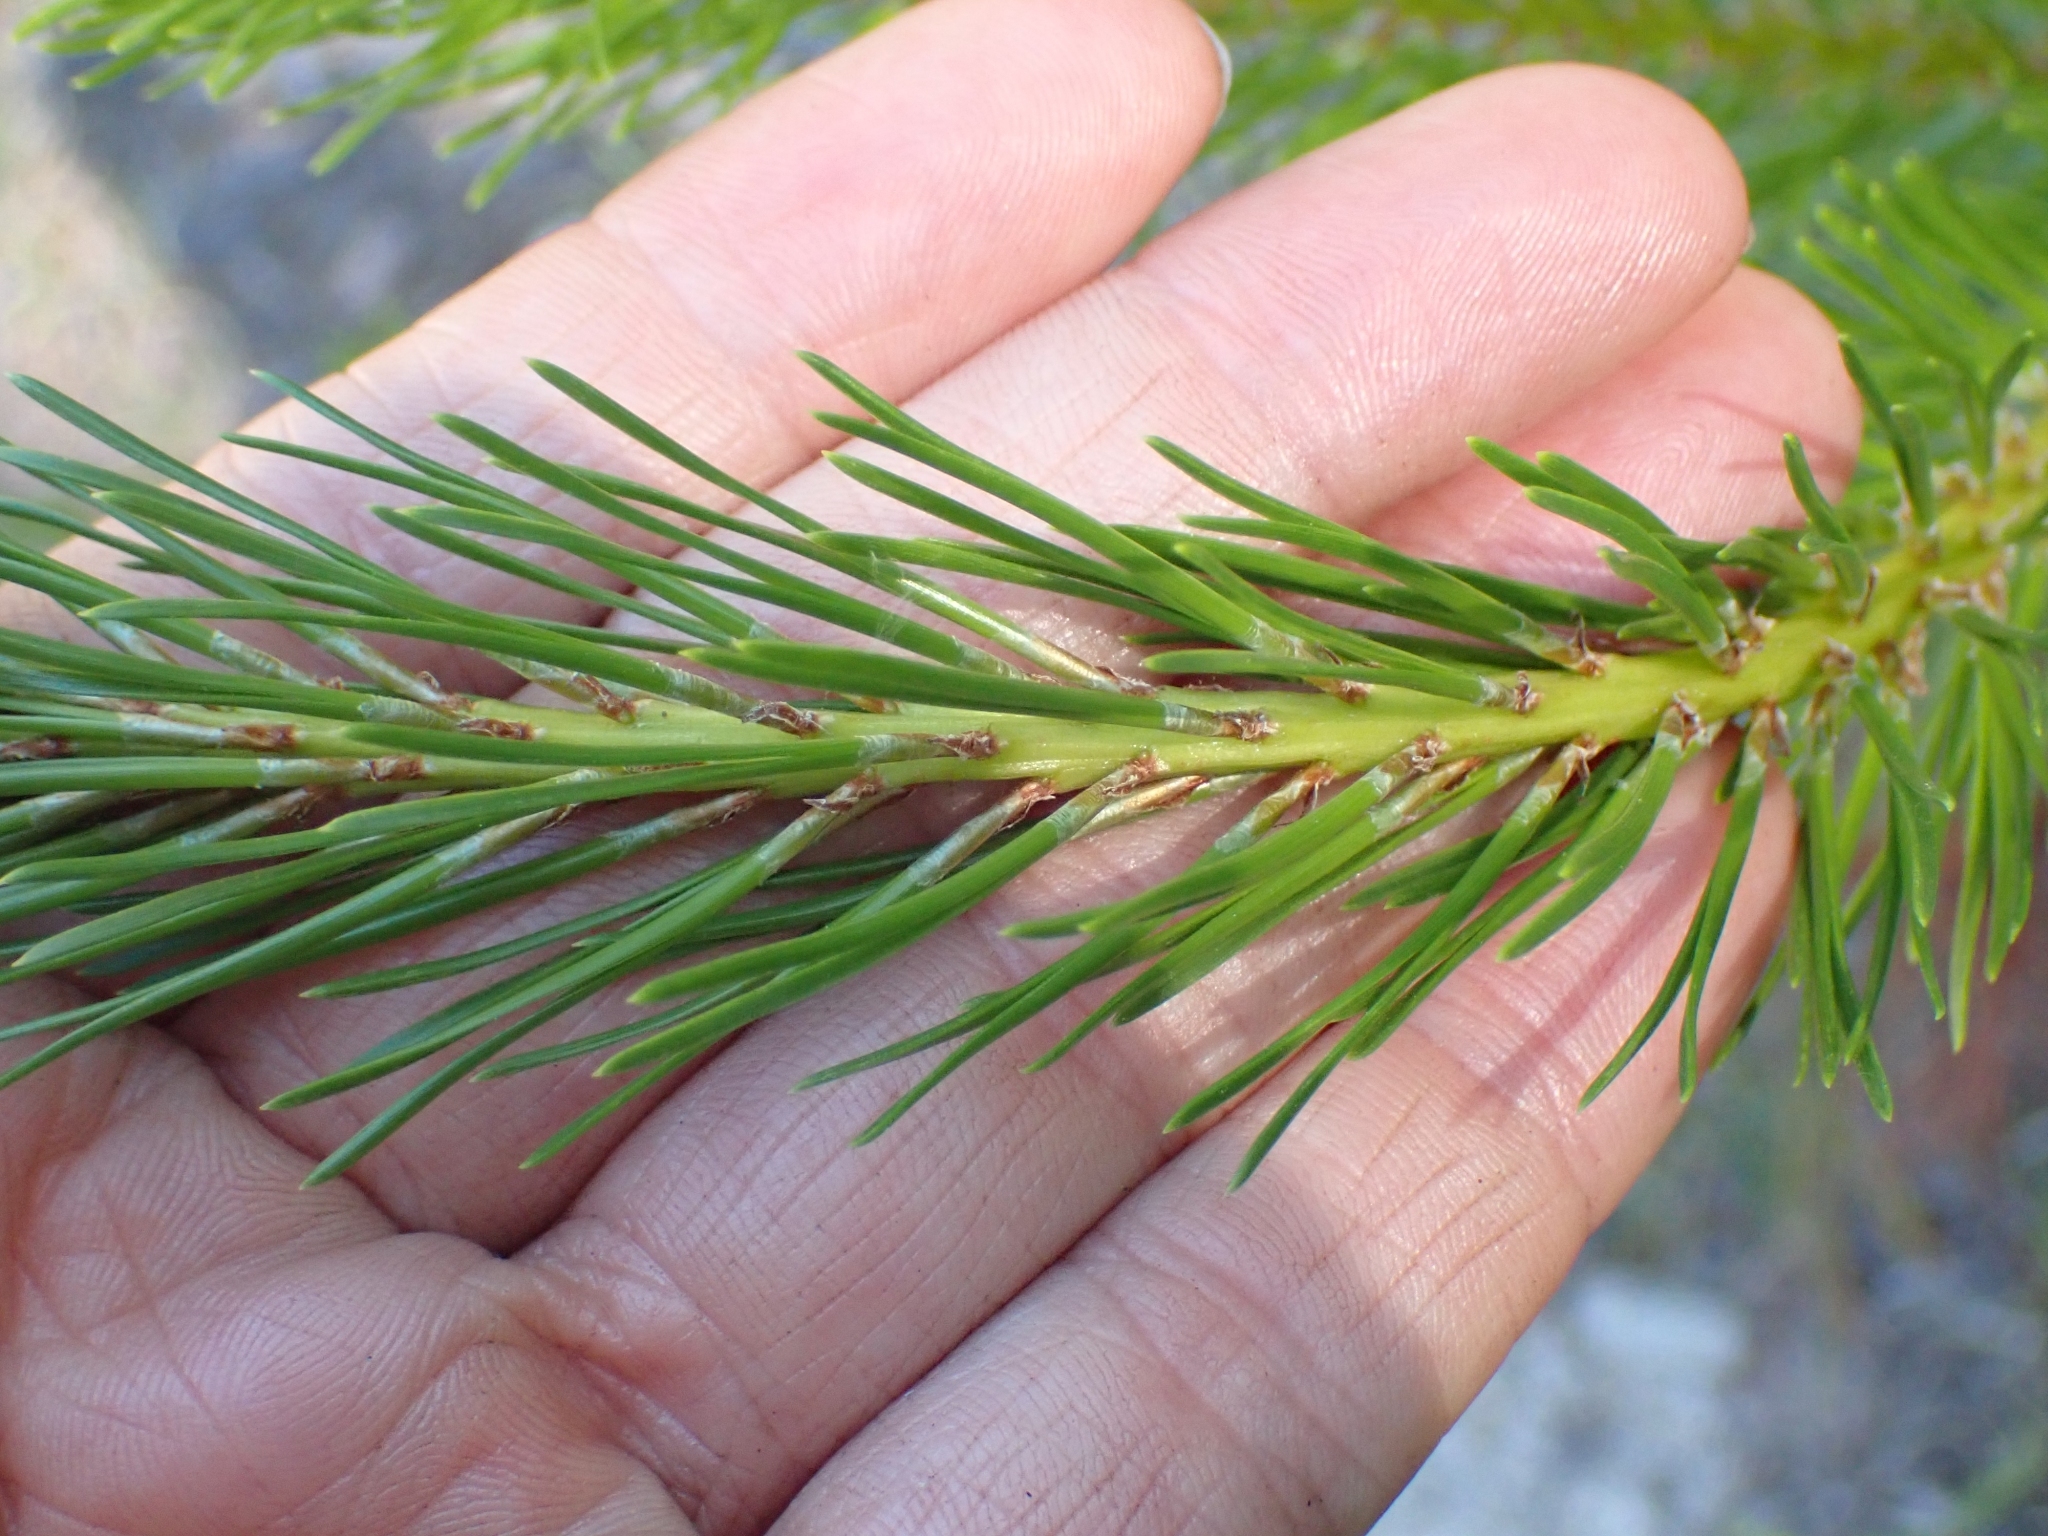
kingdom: Plantae
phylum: Tracheophyta
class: Pinopsida
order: Pinales
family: Pinaceae
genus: Pinus
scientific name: Pinus contorta
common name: Lodgepole pine
